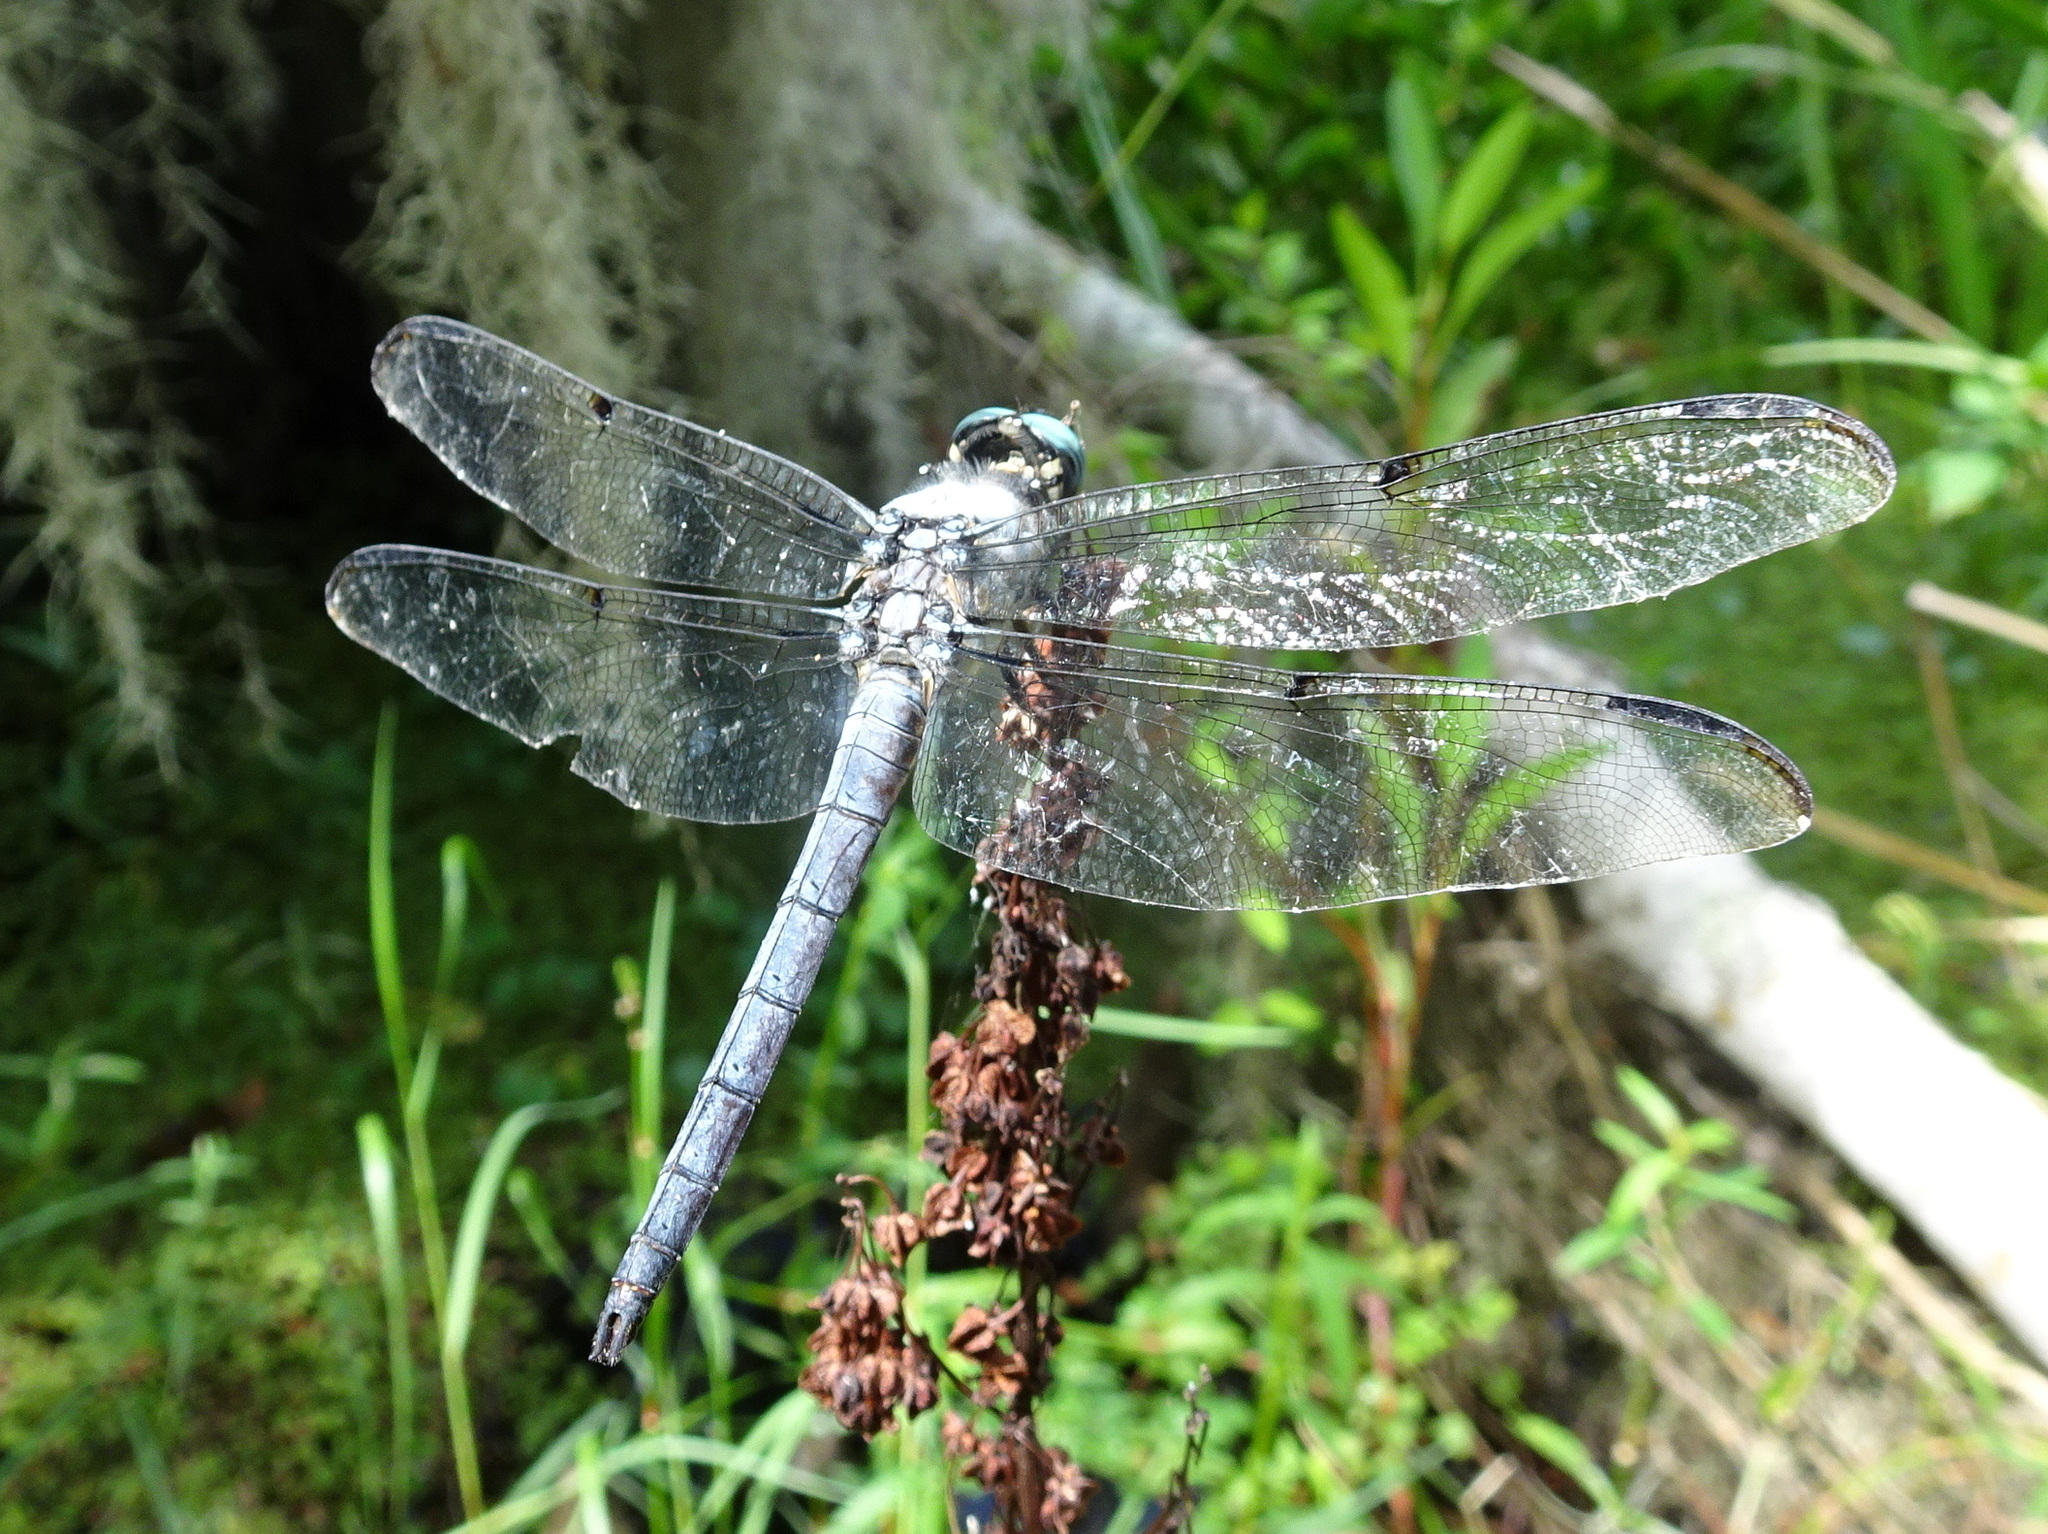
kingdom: Animalia
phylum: Arthropoda
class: Insecta
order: Odonata
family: Libellulidae
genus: Libellula
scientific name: Libellula vibrans
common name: Great blue skimmer
